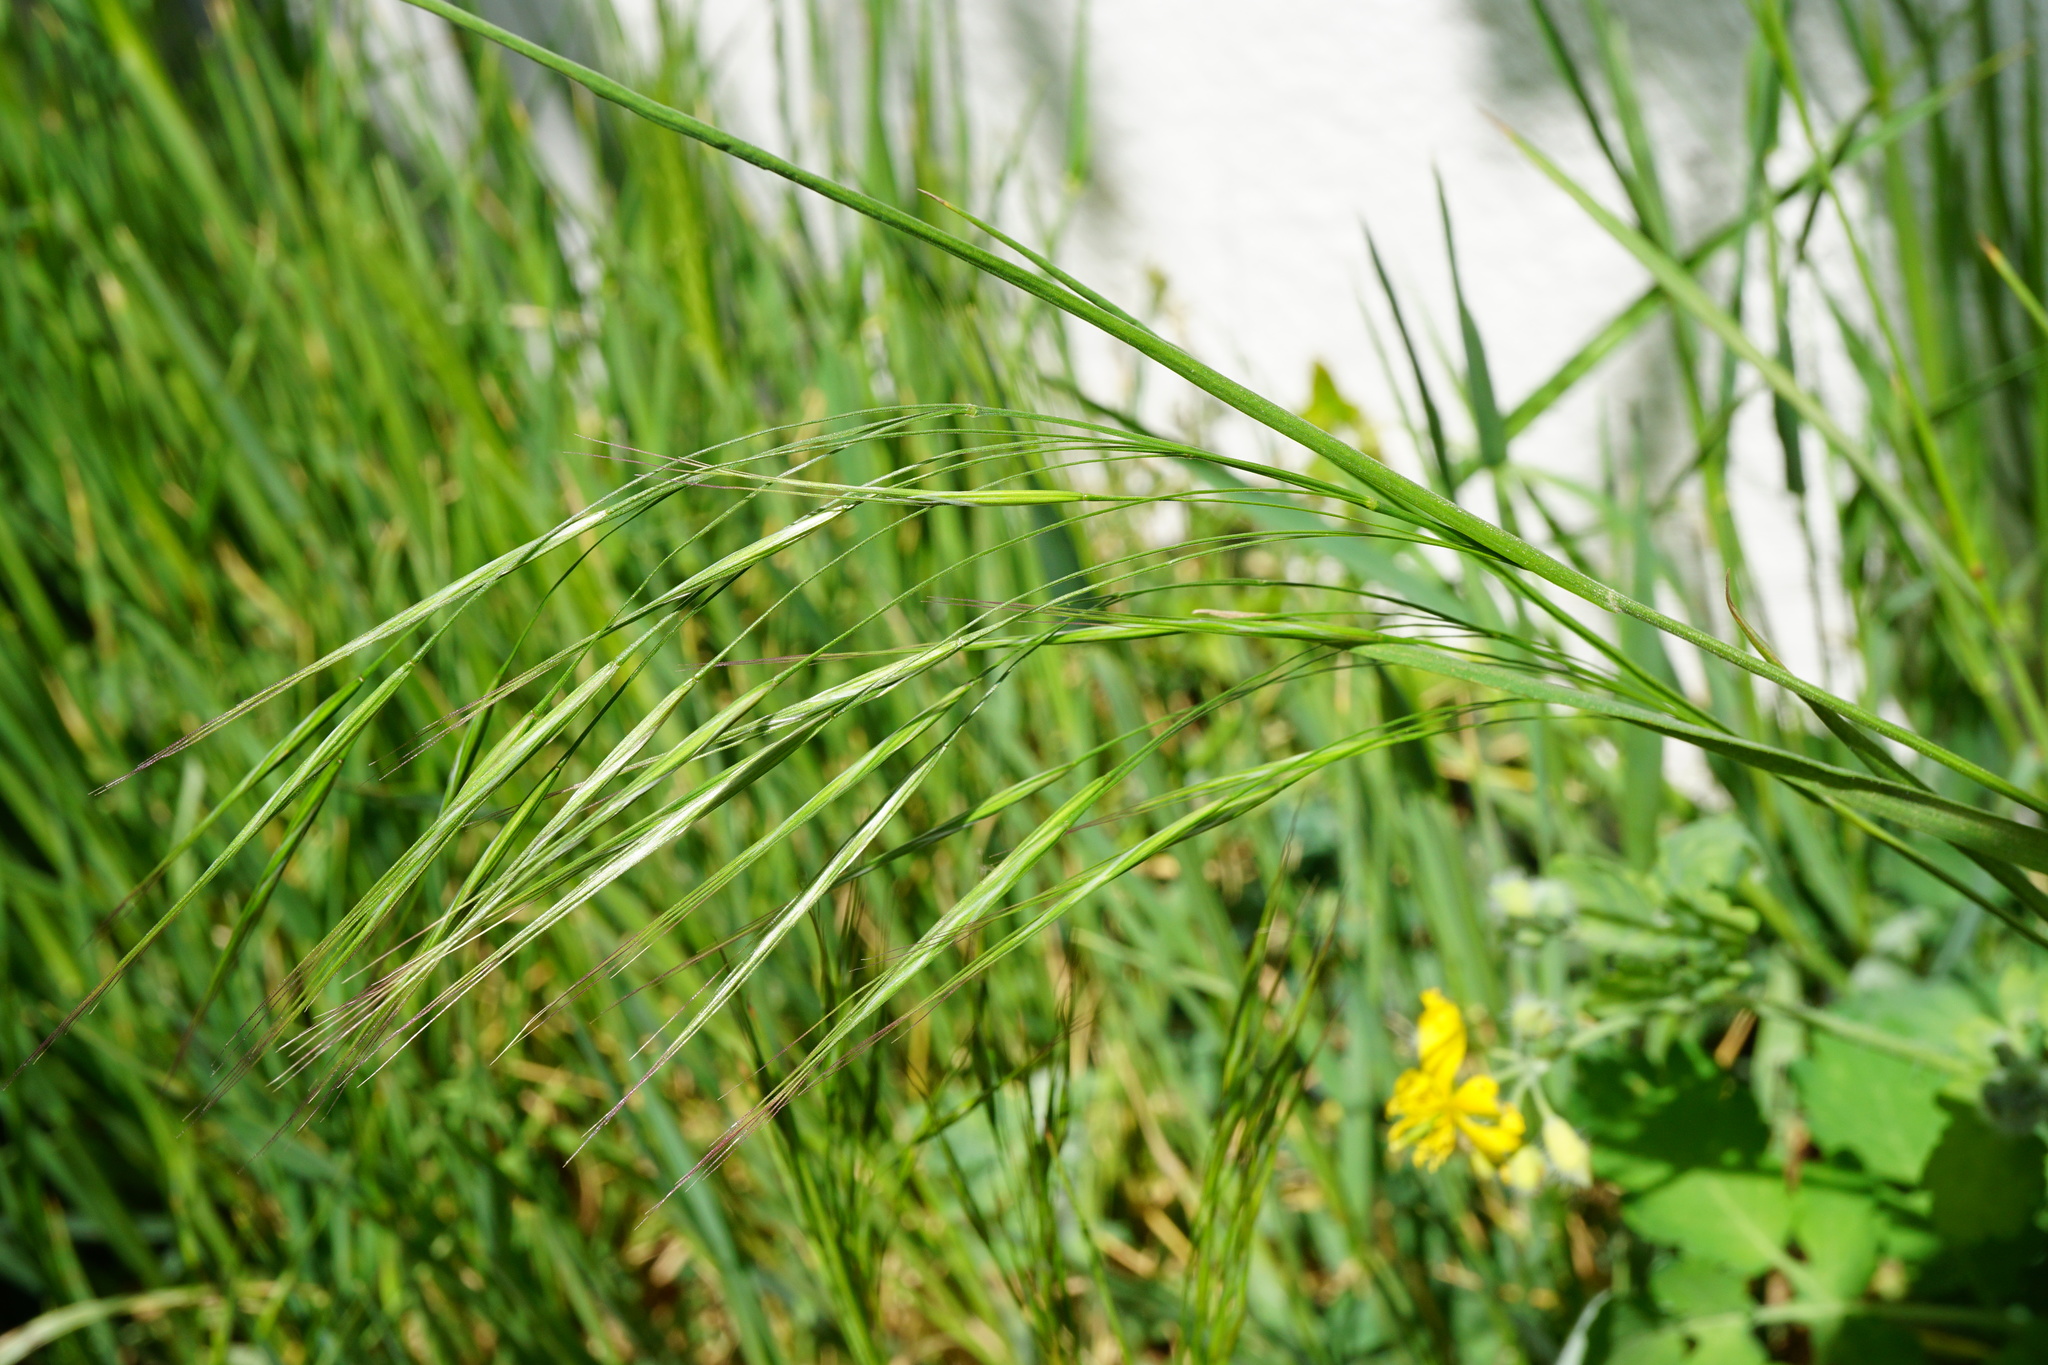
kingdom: Plantae
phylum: Tracheophyta
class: Liliopsida
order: Poales
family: Poaceae
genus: Bromus
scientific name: Bromus sterilis
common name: Poverty brome
